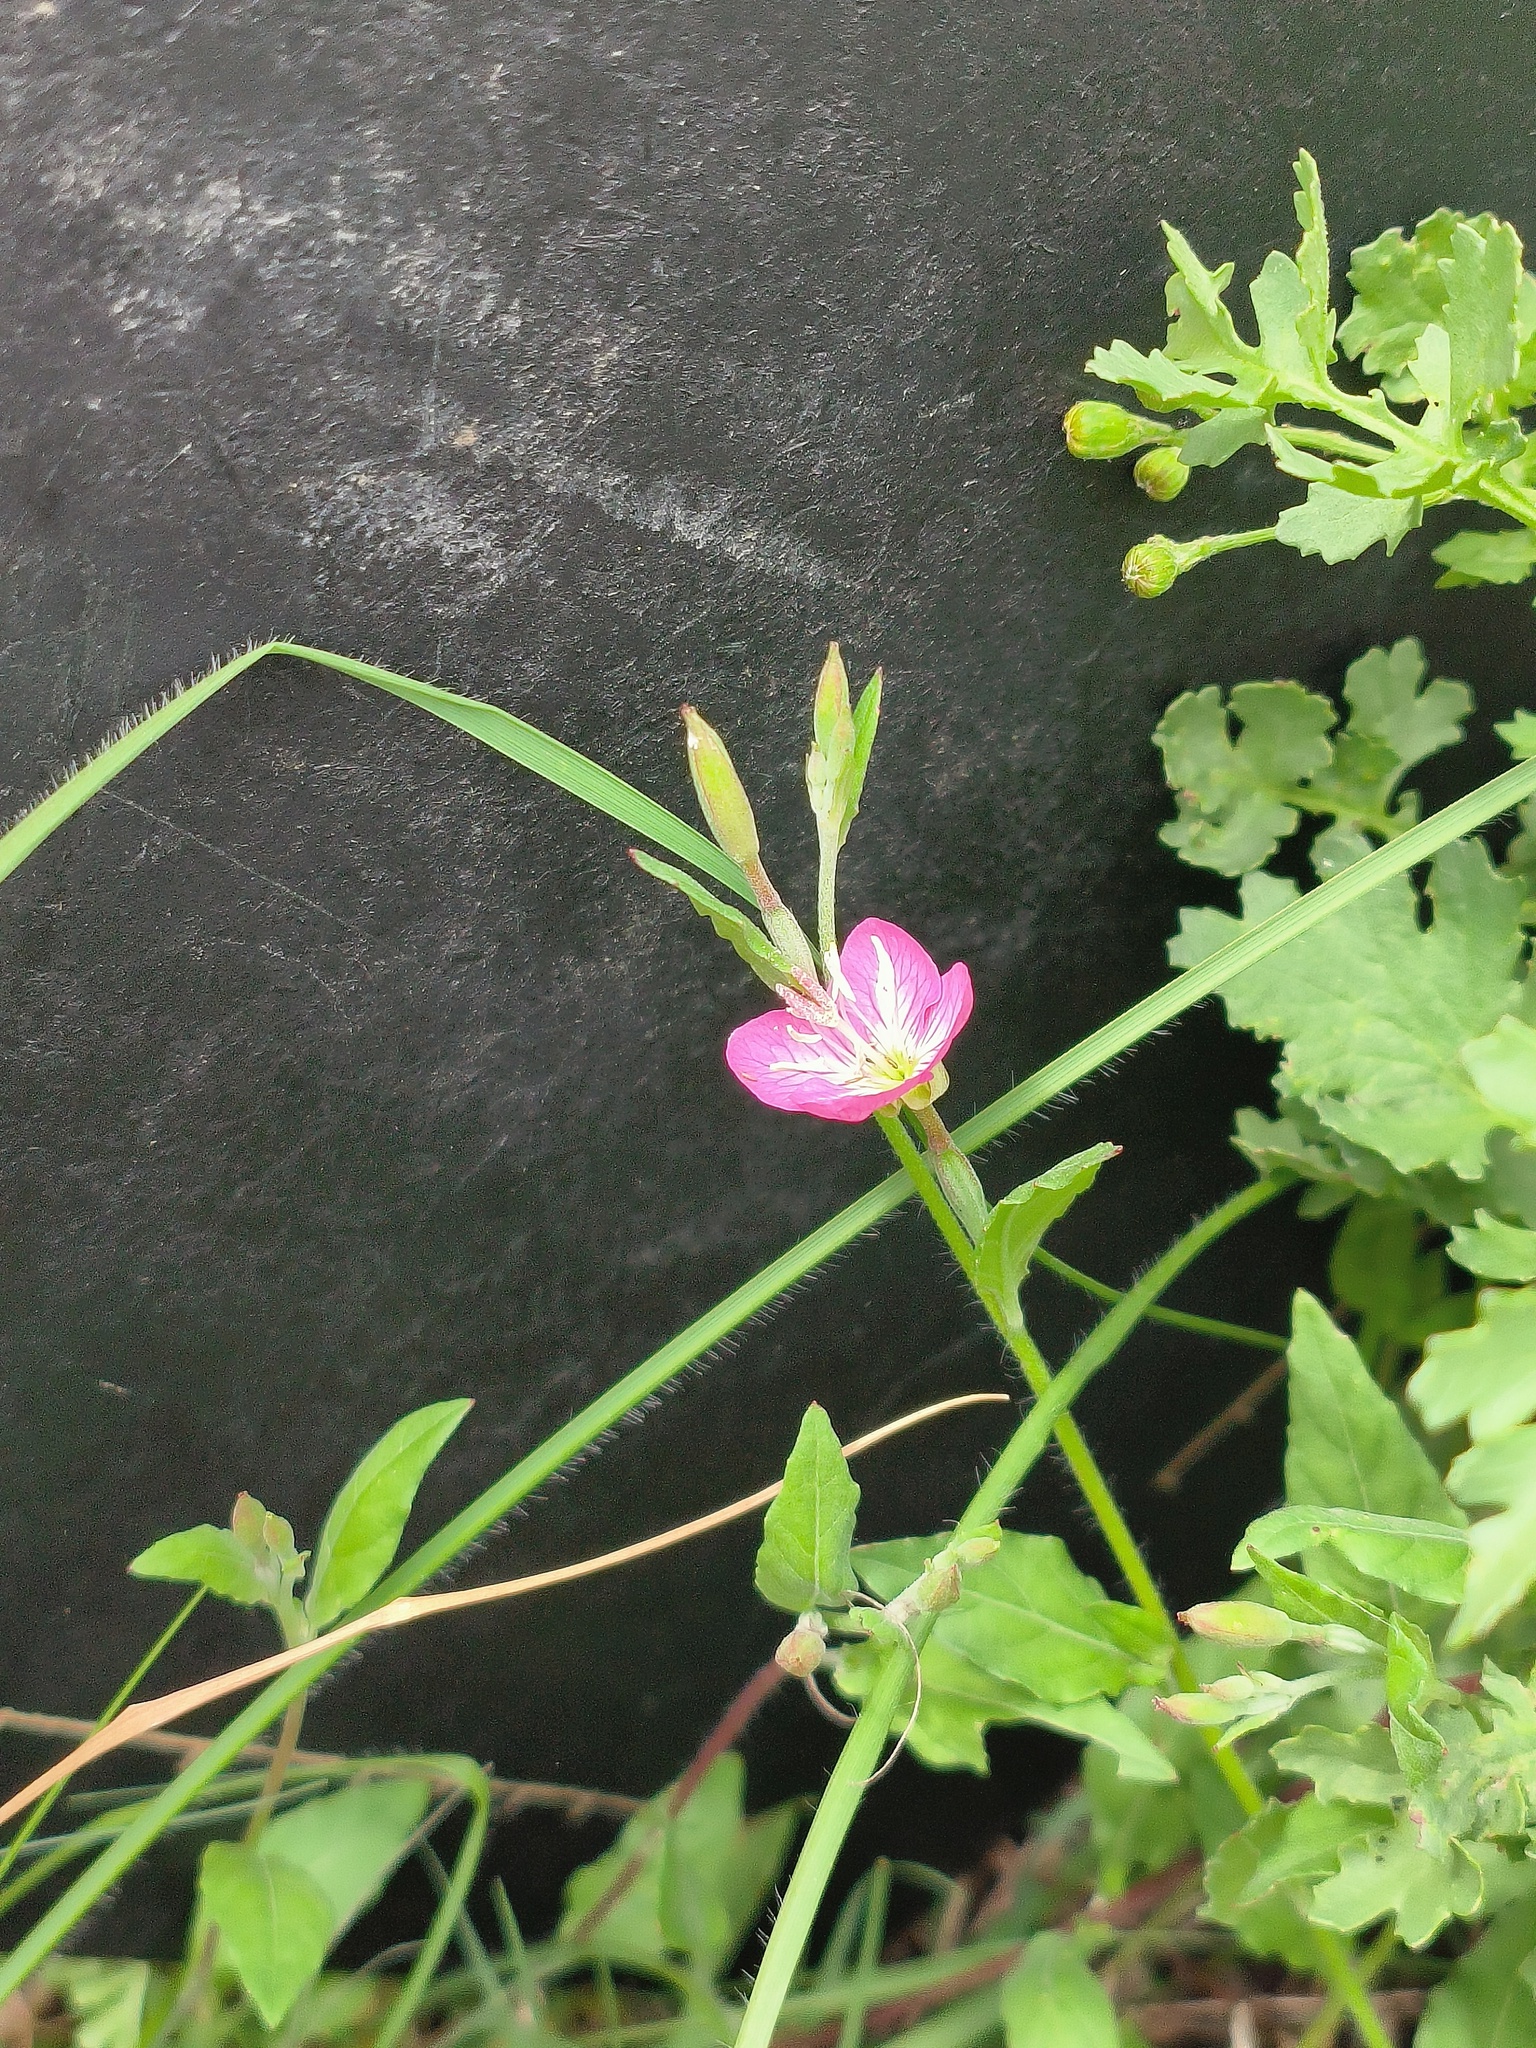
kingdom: Plantae
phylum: Tracheophyta
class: Magnoliopsida
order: Myrtales
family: Onagraceae
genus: Oenothera
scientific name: Oenothera rosea
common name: Rosy evening-primrose
